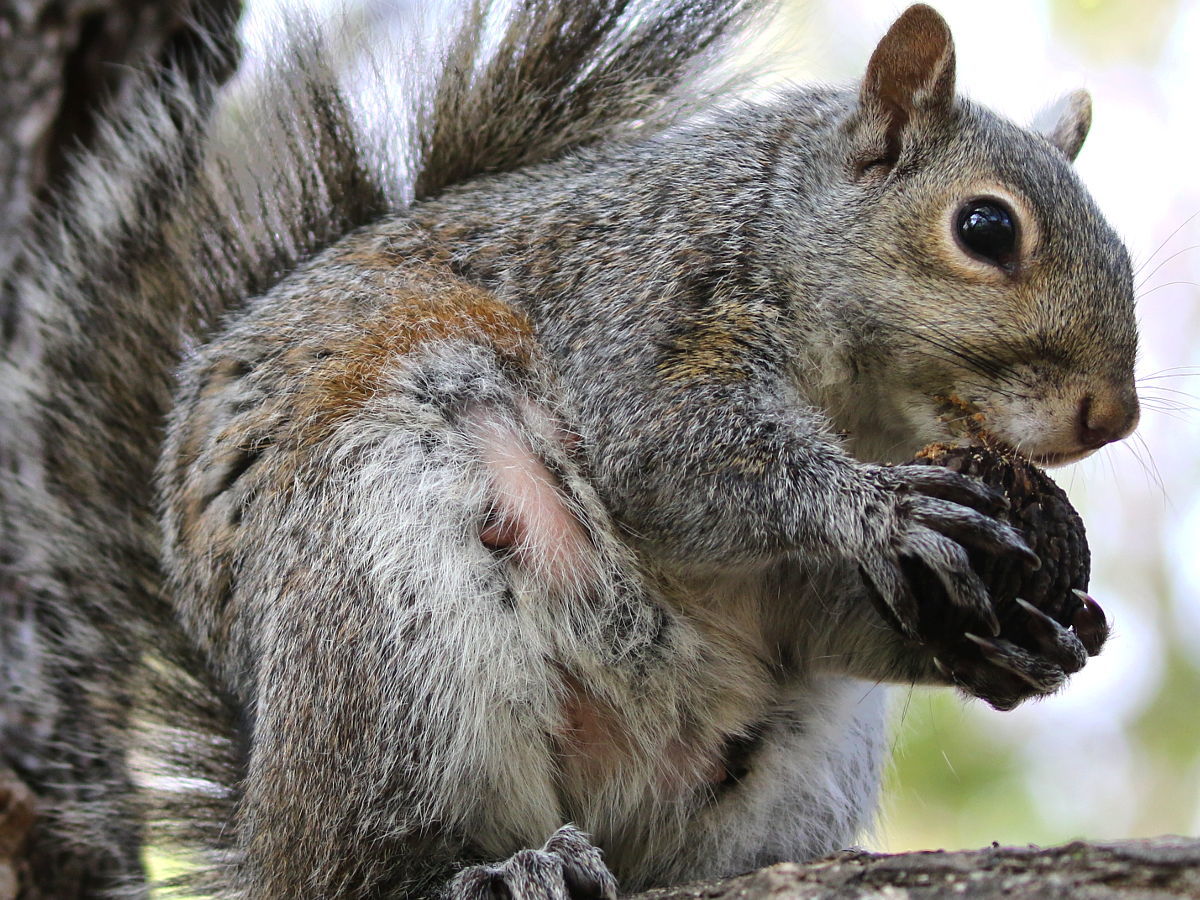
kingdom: Animalia
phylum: Chordata
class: Mammalia
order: Rodentia
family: Sciuridae
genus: Sciurus
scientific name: Sciurus carolinensis
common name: Eastern gray squirrel
